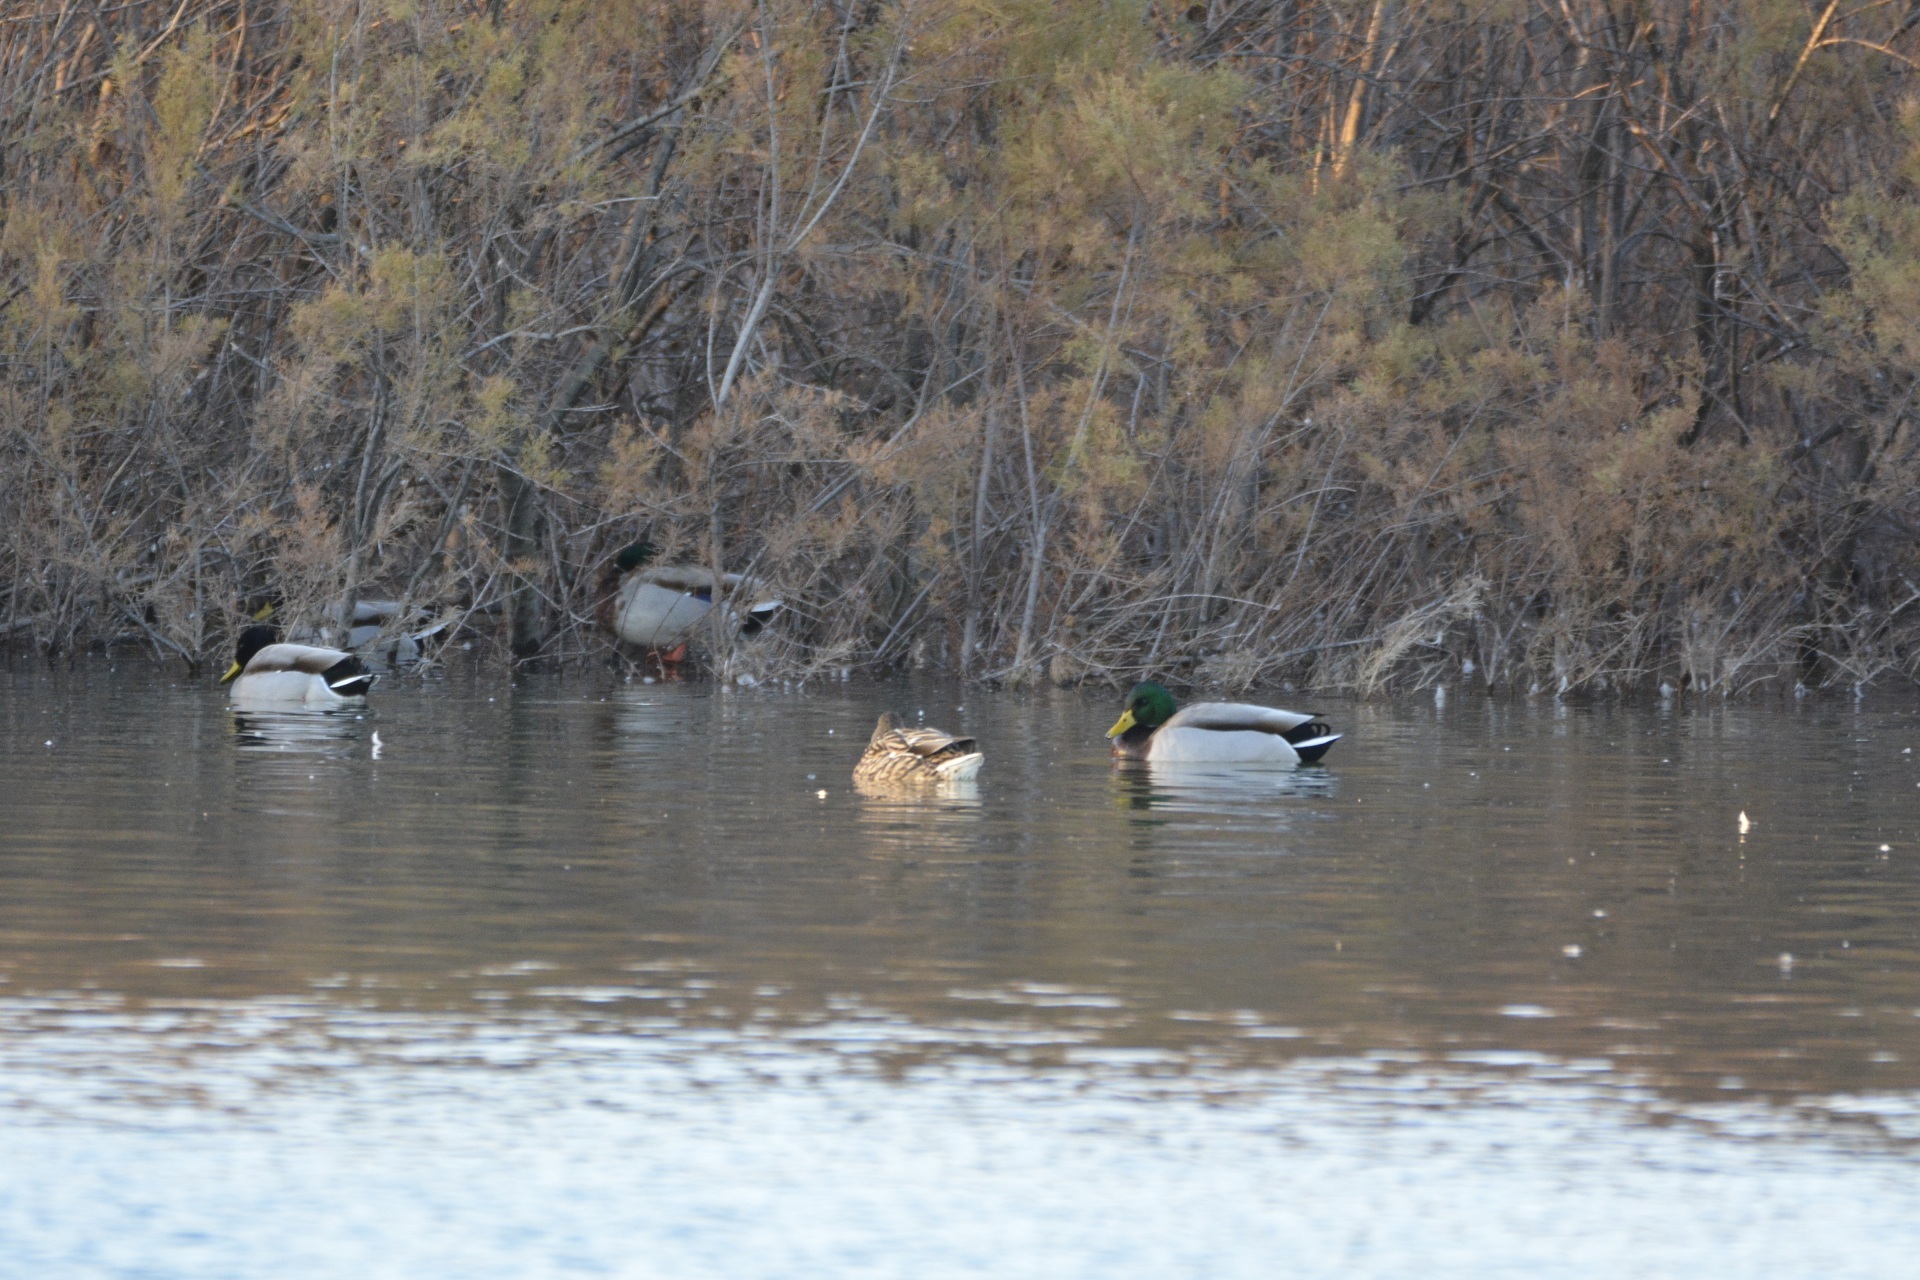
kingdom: Animalia
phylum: Chordata
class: Aves
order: Anseriformes
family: Anatidae
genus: Anas
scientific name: Anas platyrhynchos
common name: Mallard
